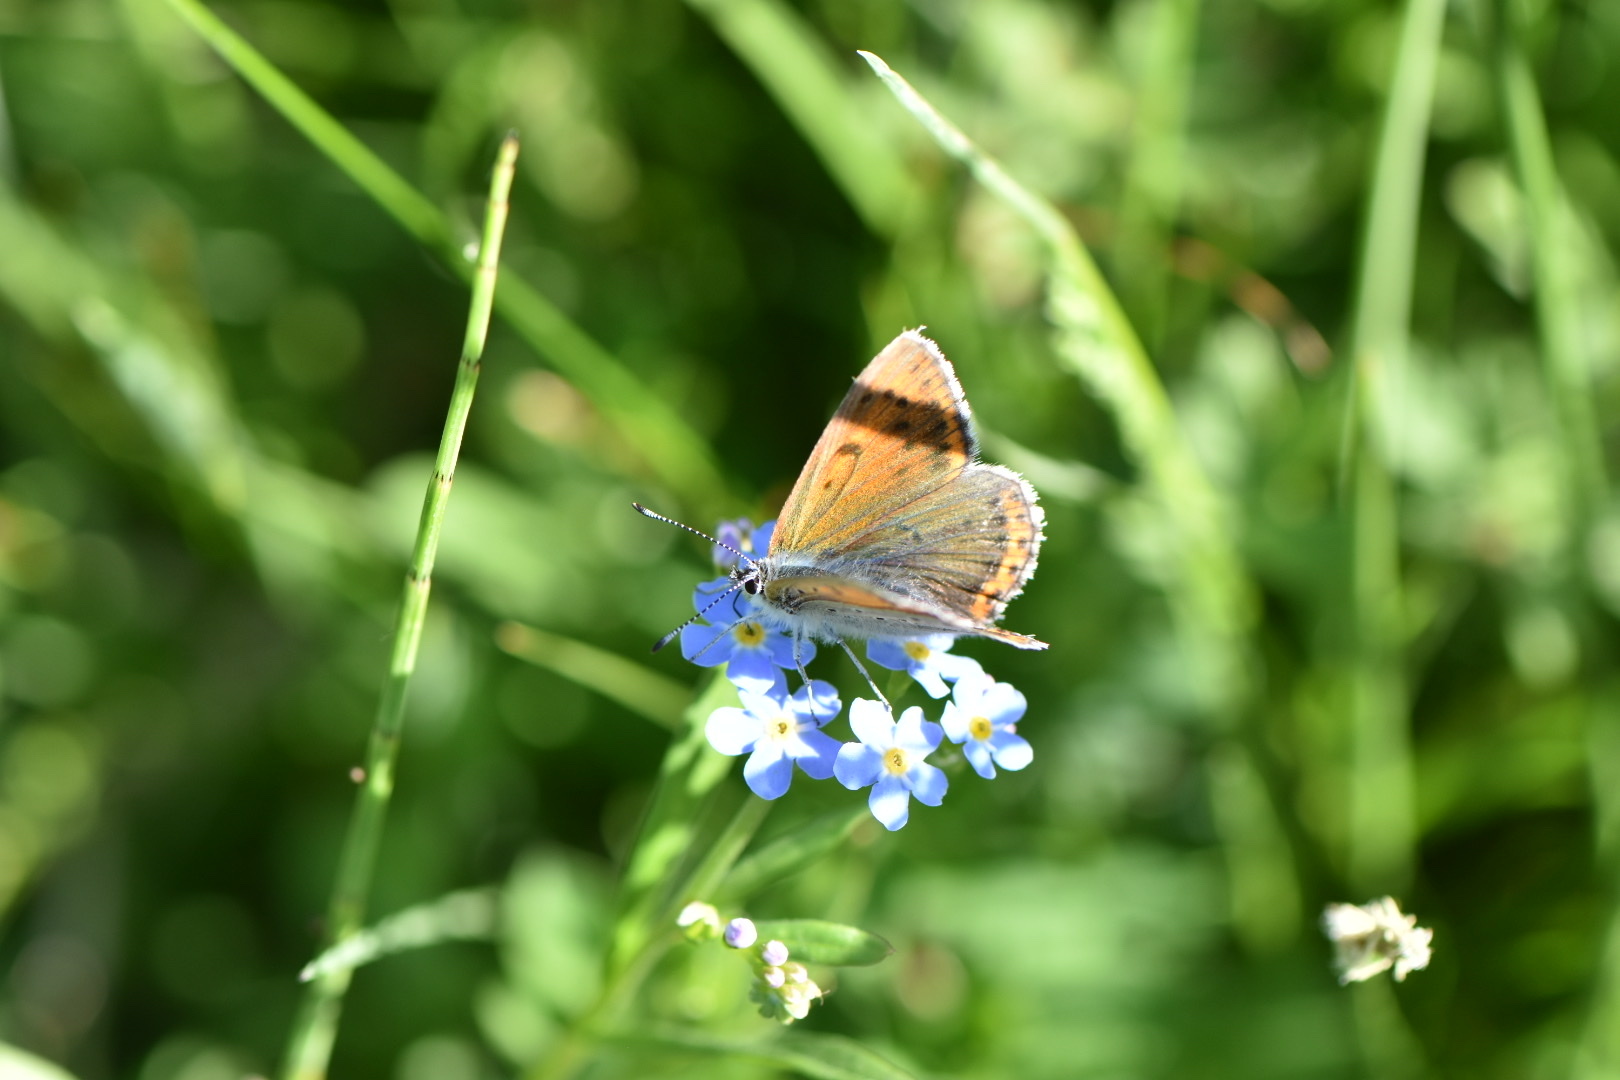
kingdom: Animalia
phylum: Arthropoda
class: Insecta
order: Lepidoptera
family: Lycaenidae
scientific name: Lycaenidae
